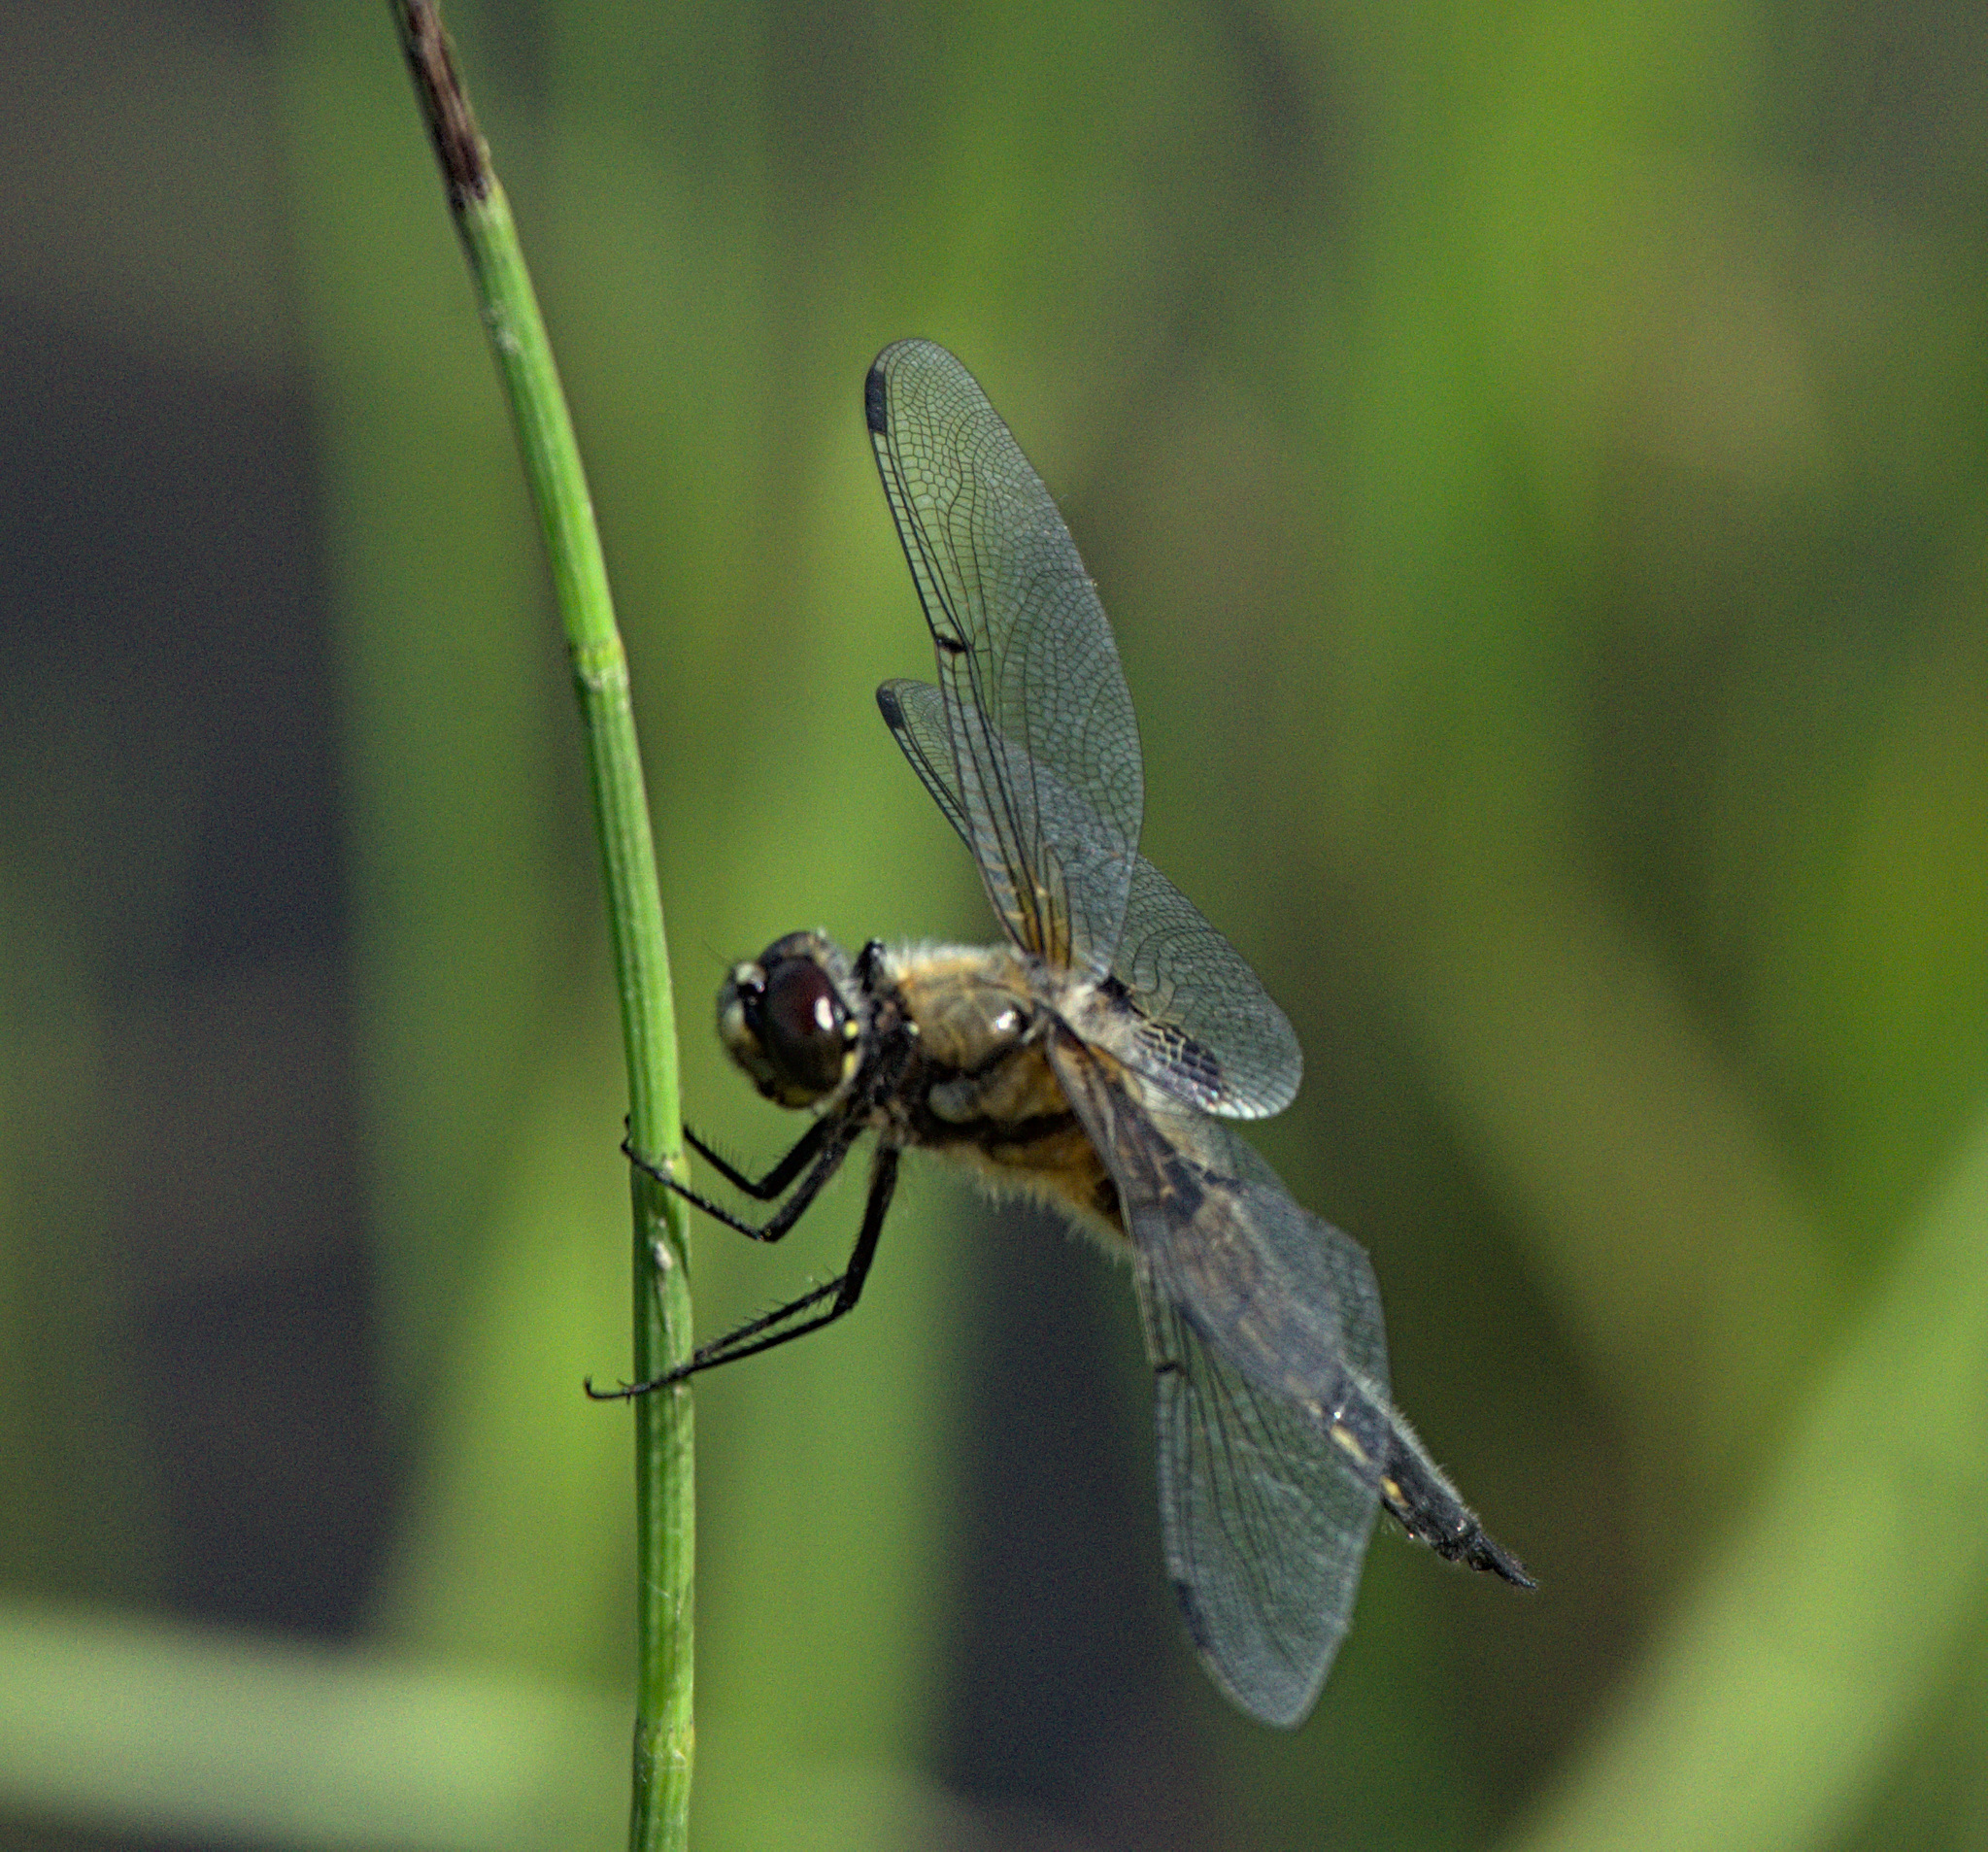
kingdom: Animalia
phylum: Arthropoda
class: Insecta
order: Odonata
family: Libellulidae
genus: Libellula
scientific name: Libellula quadrimaculata
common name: Four-spotted chaser
